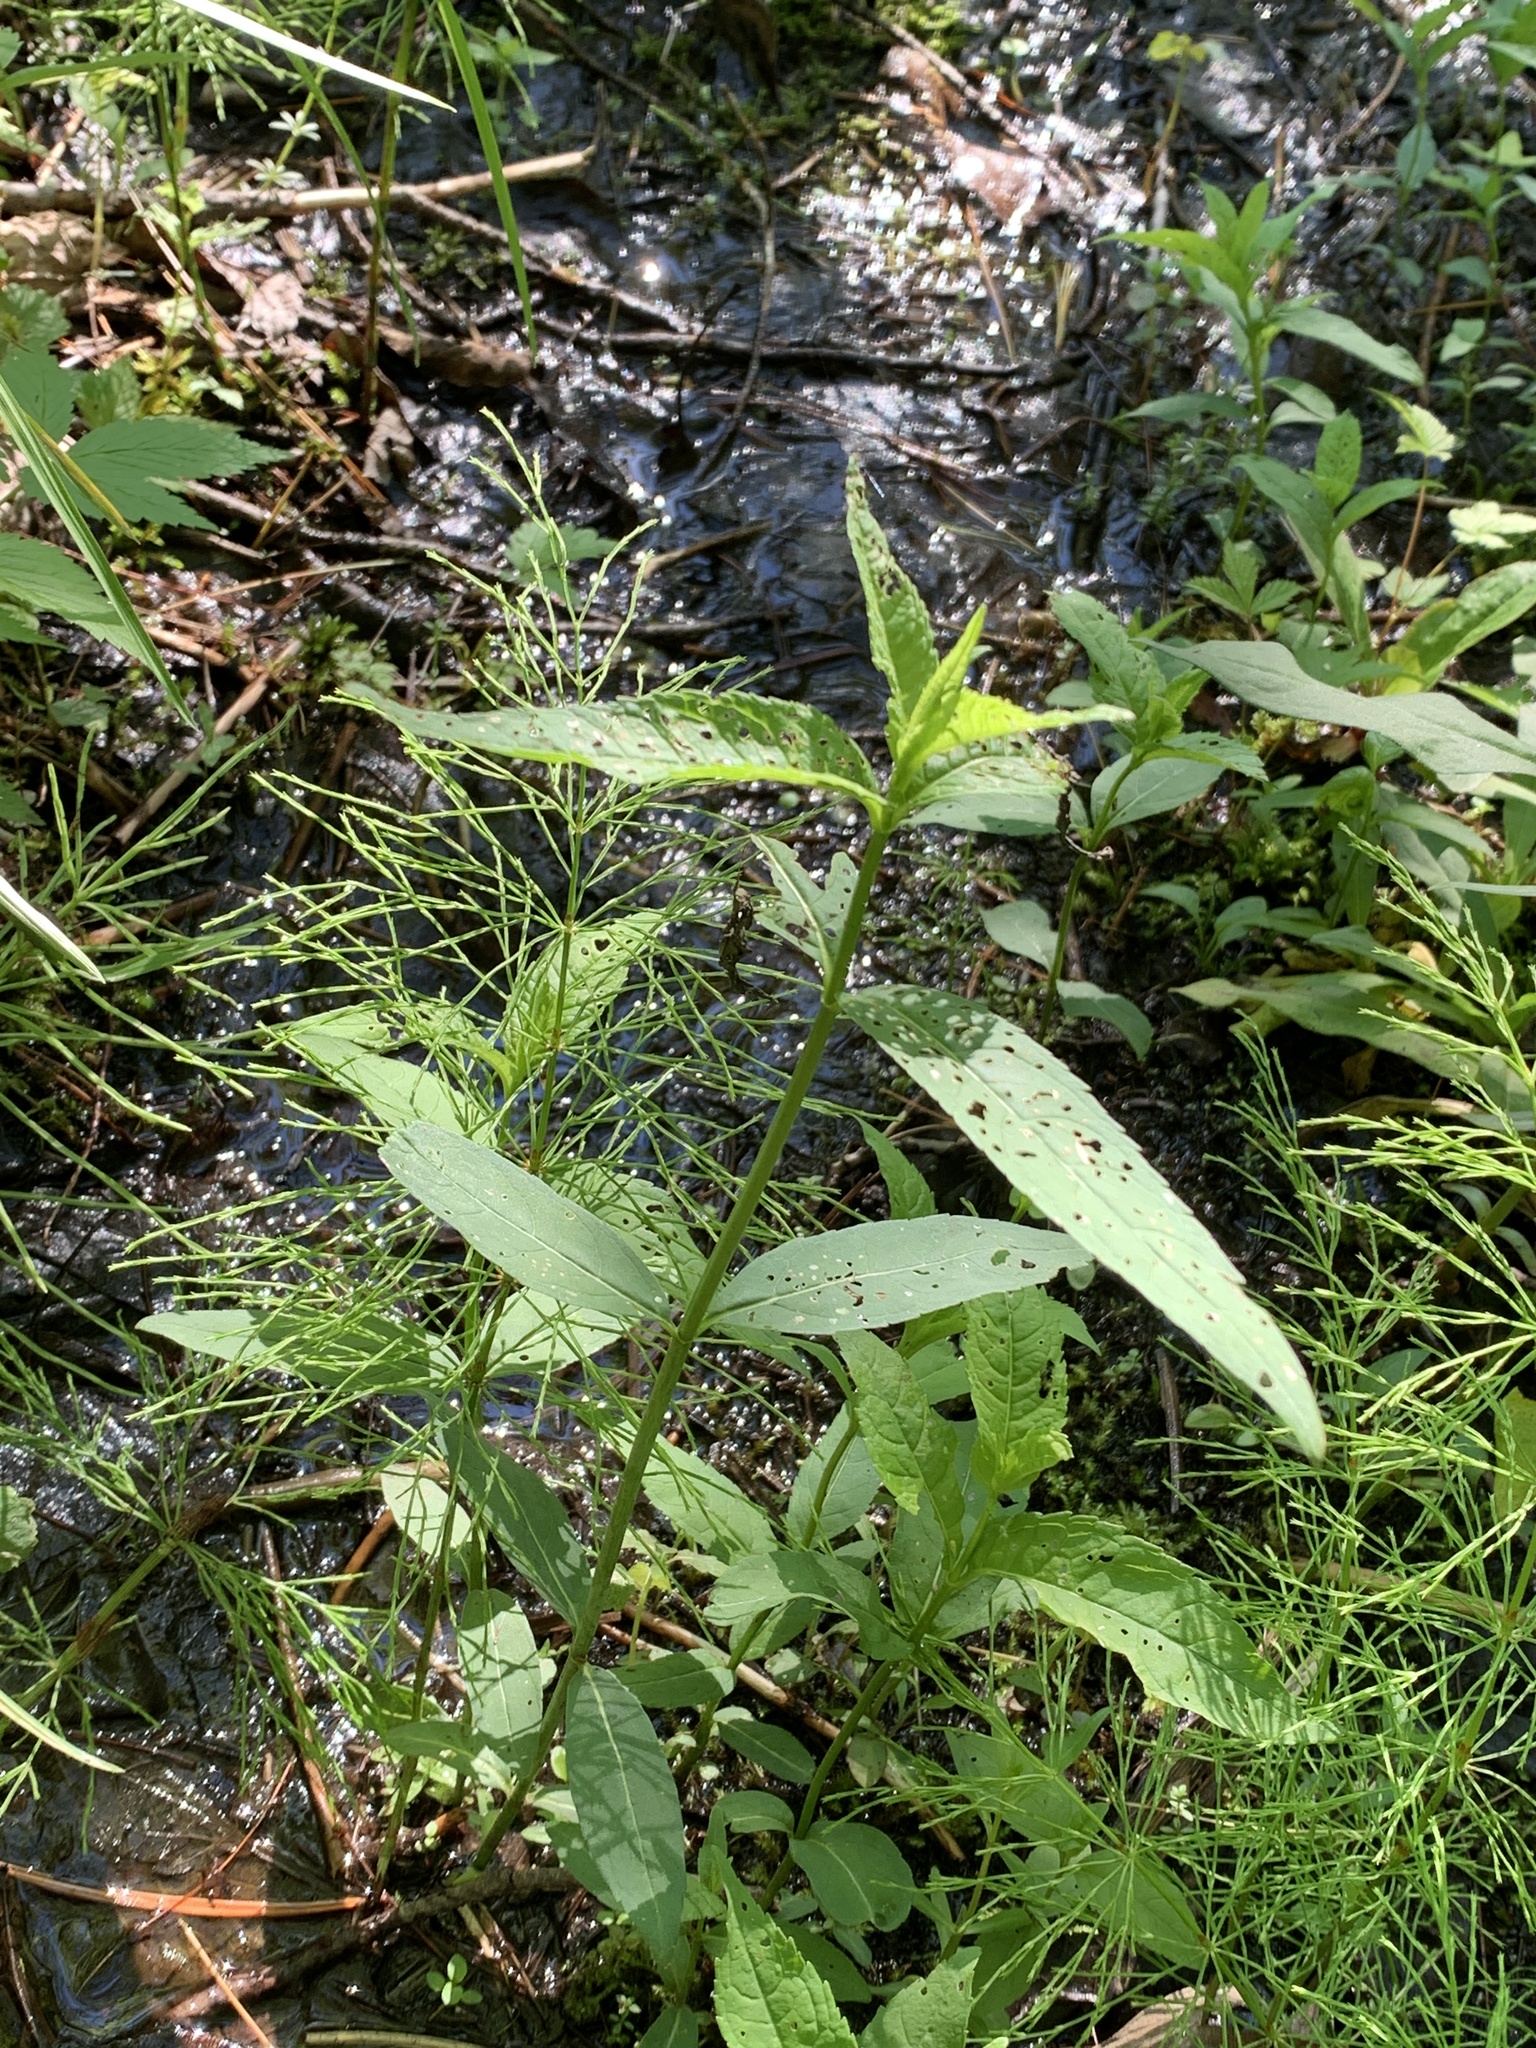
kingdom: Plantae
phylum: Tracheophyta
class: Magnoliopsida
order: Lamiales
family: Plantaginaceae
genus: Chelone
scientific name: Chelone glabra
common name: Snakehead
